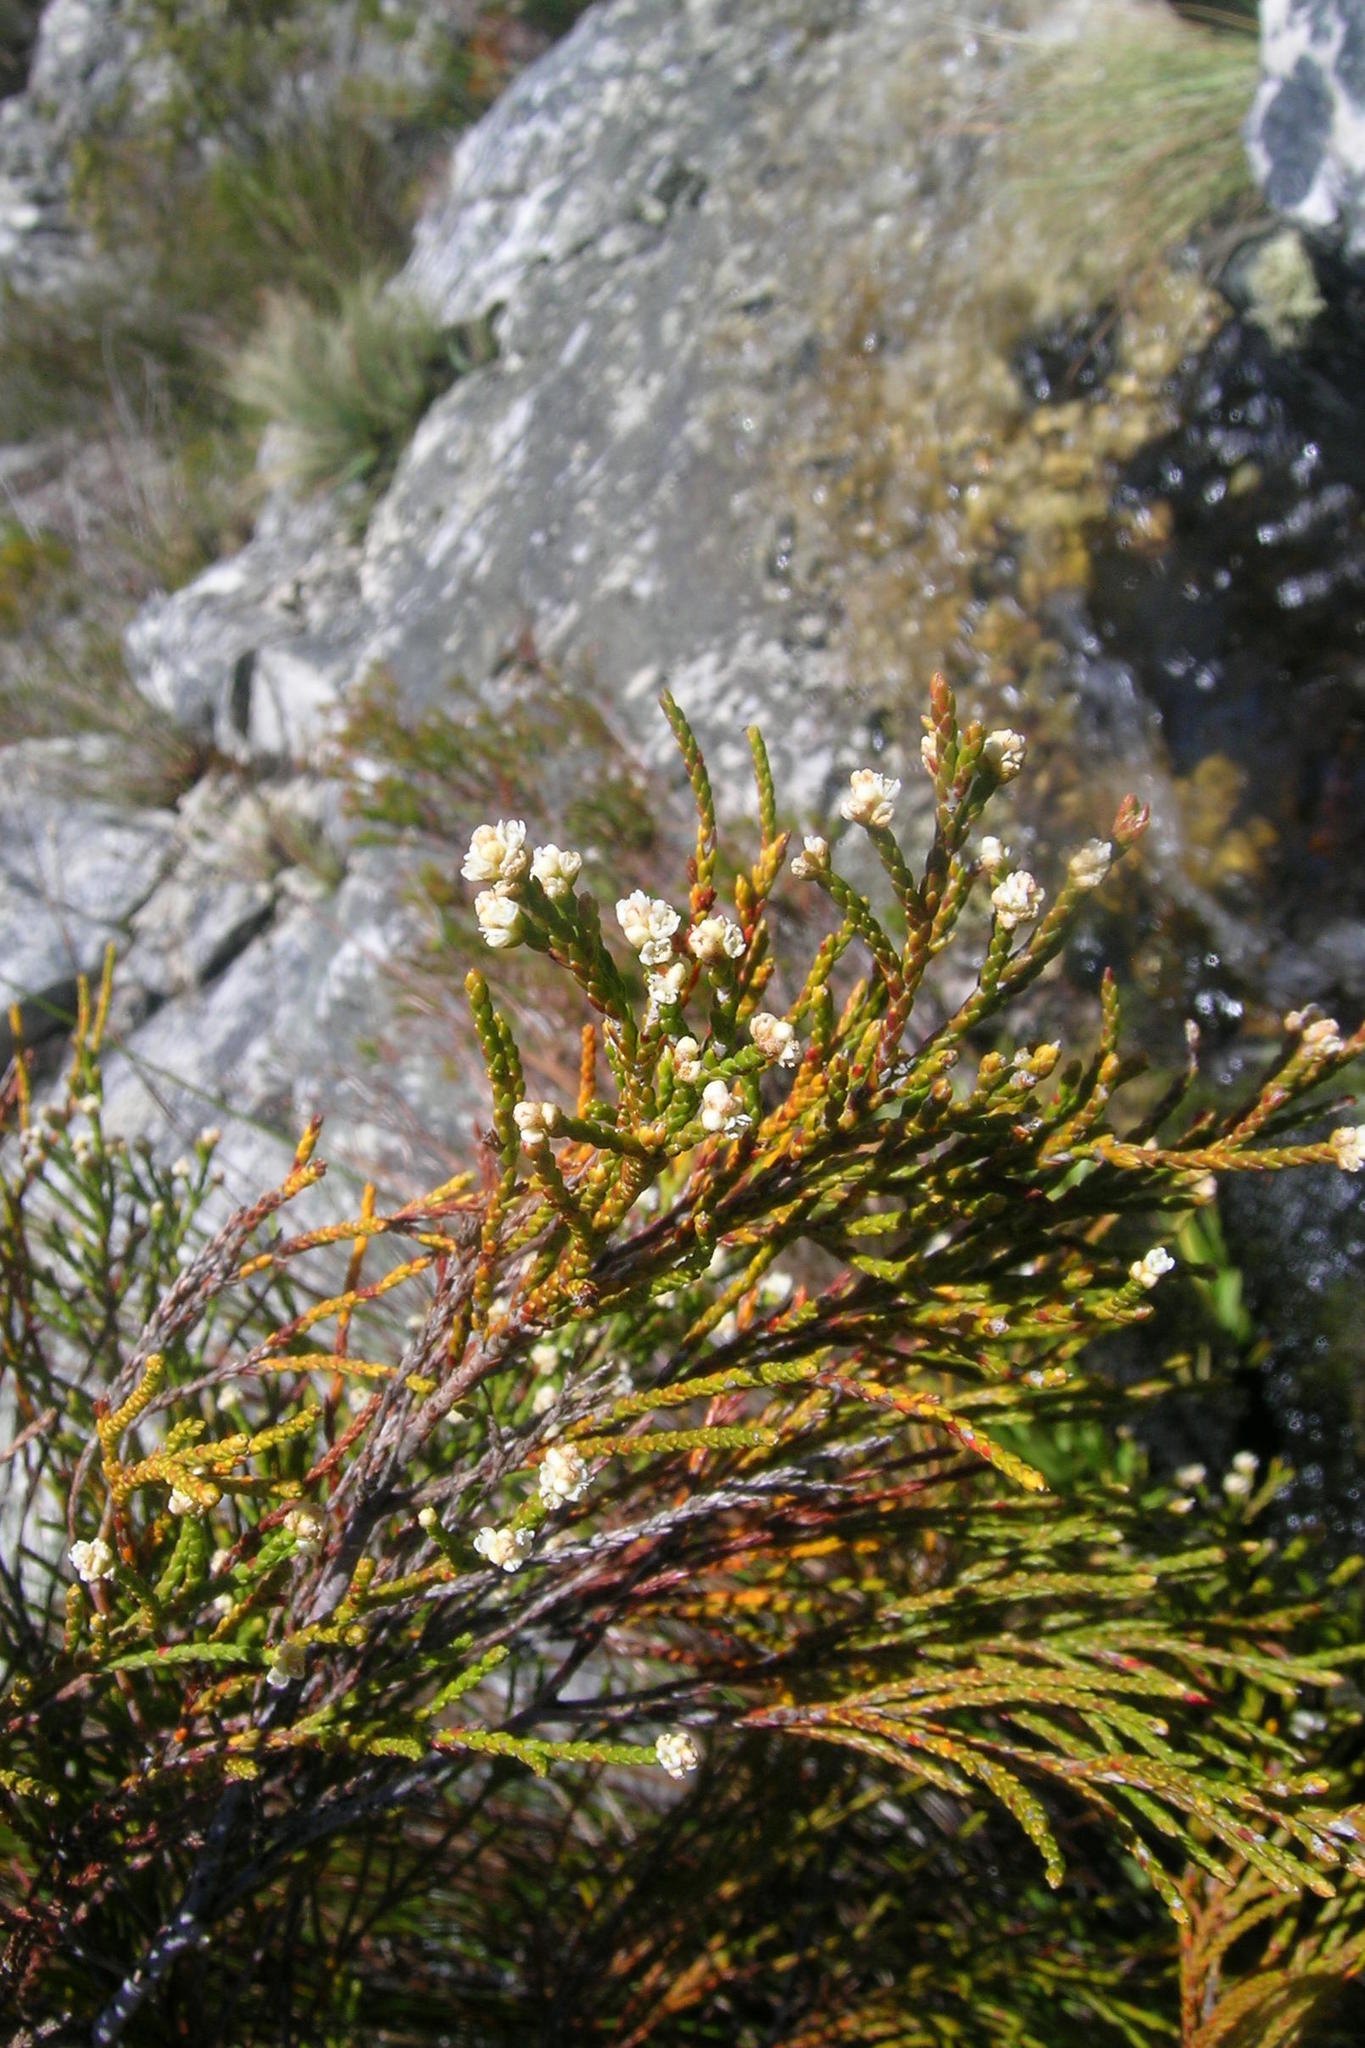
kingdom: Plantae
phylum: Tracheophyta
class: Magnoliopsida
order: Bruniales
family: Bruniaceae
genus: Brunia
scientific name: Brunia schlechteri
